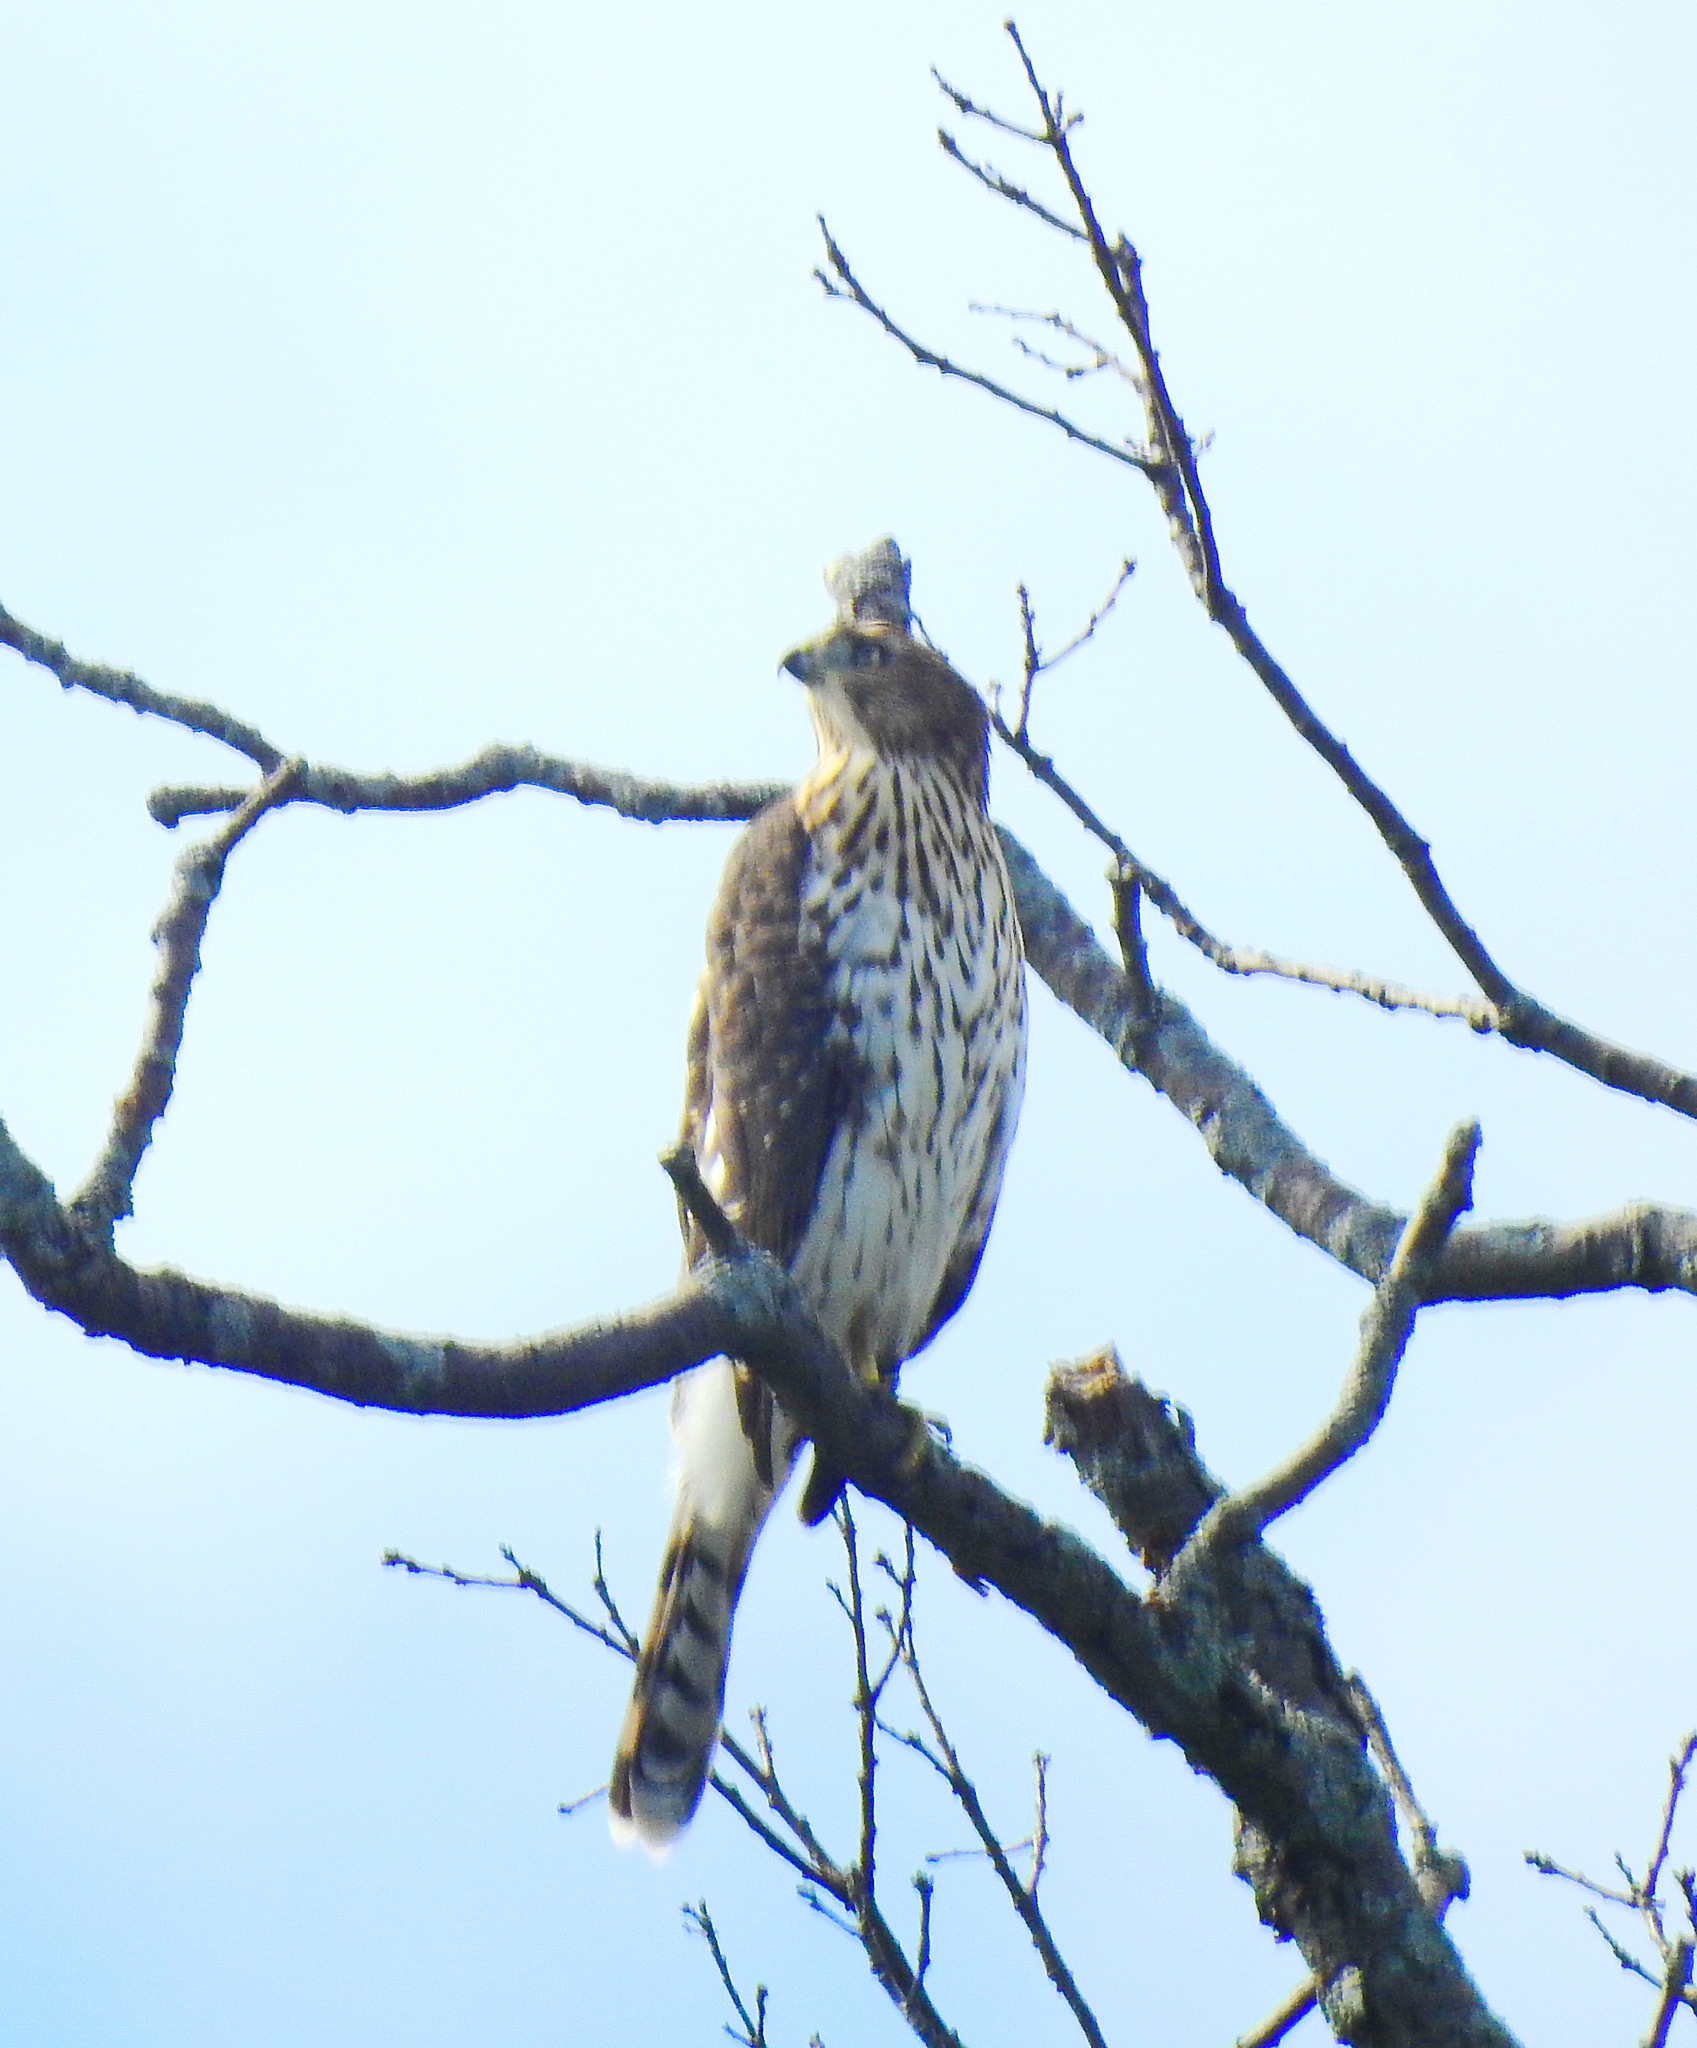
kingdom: Animalia
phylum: Chordata
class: Aves
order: Accipitriformes
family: Accipitridae
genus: Accipiter
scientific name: Accipiter cooperii
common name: Cooper's hawk
